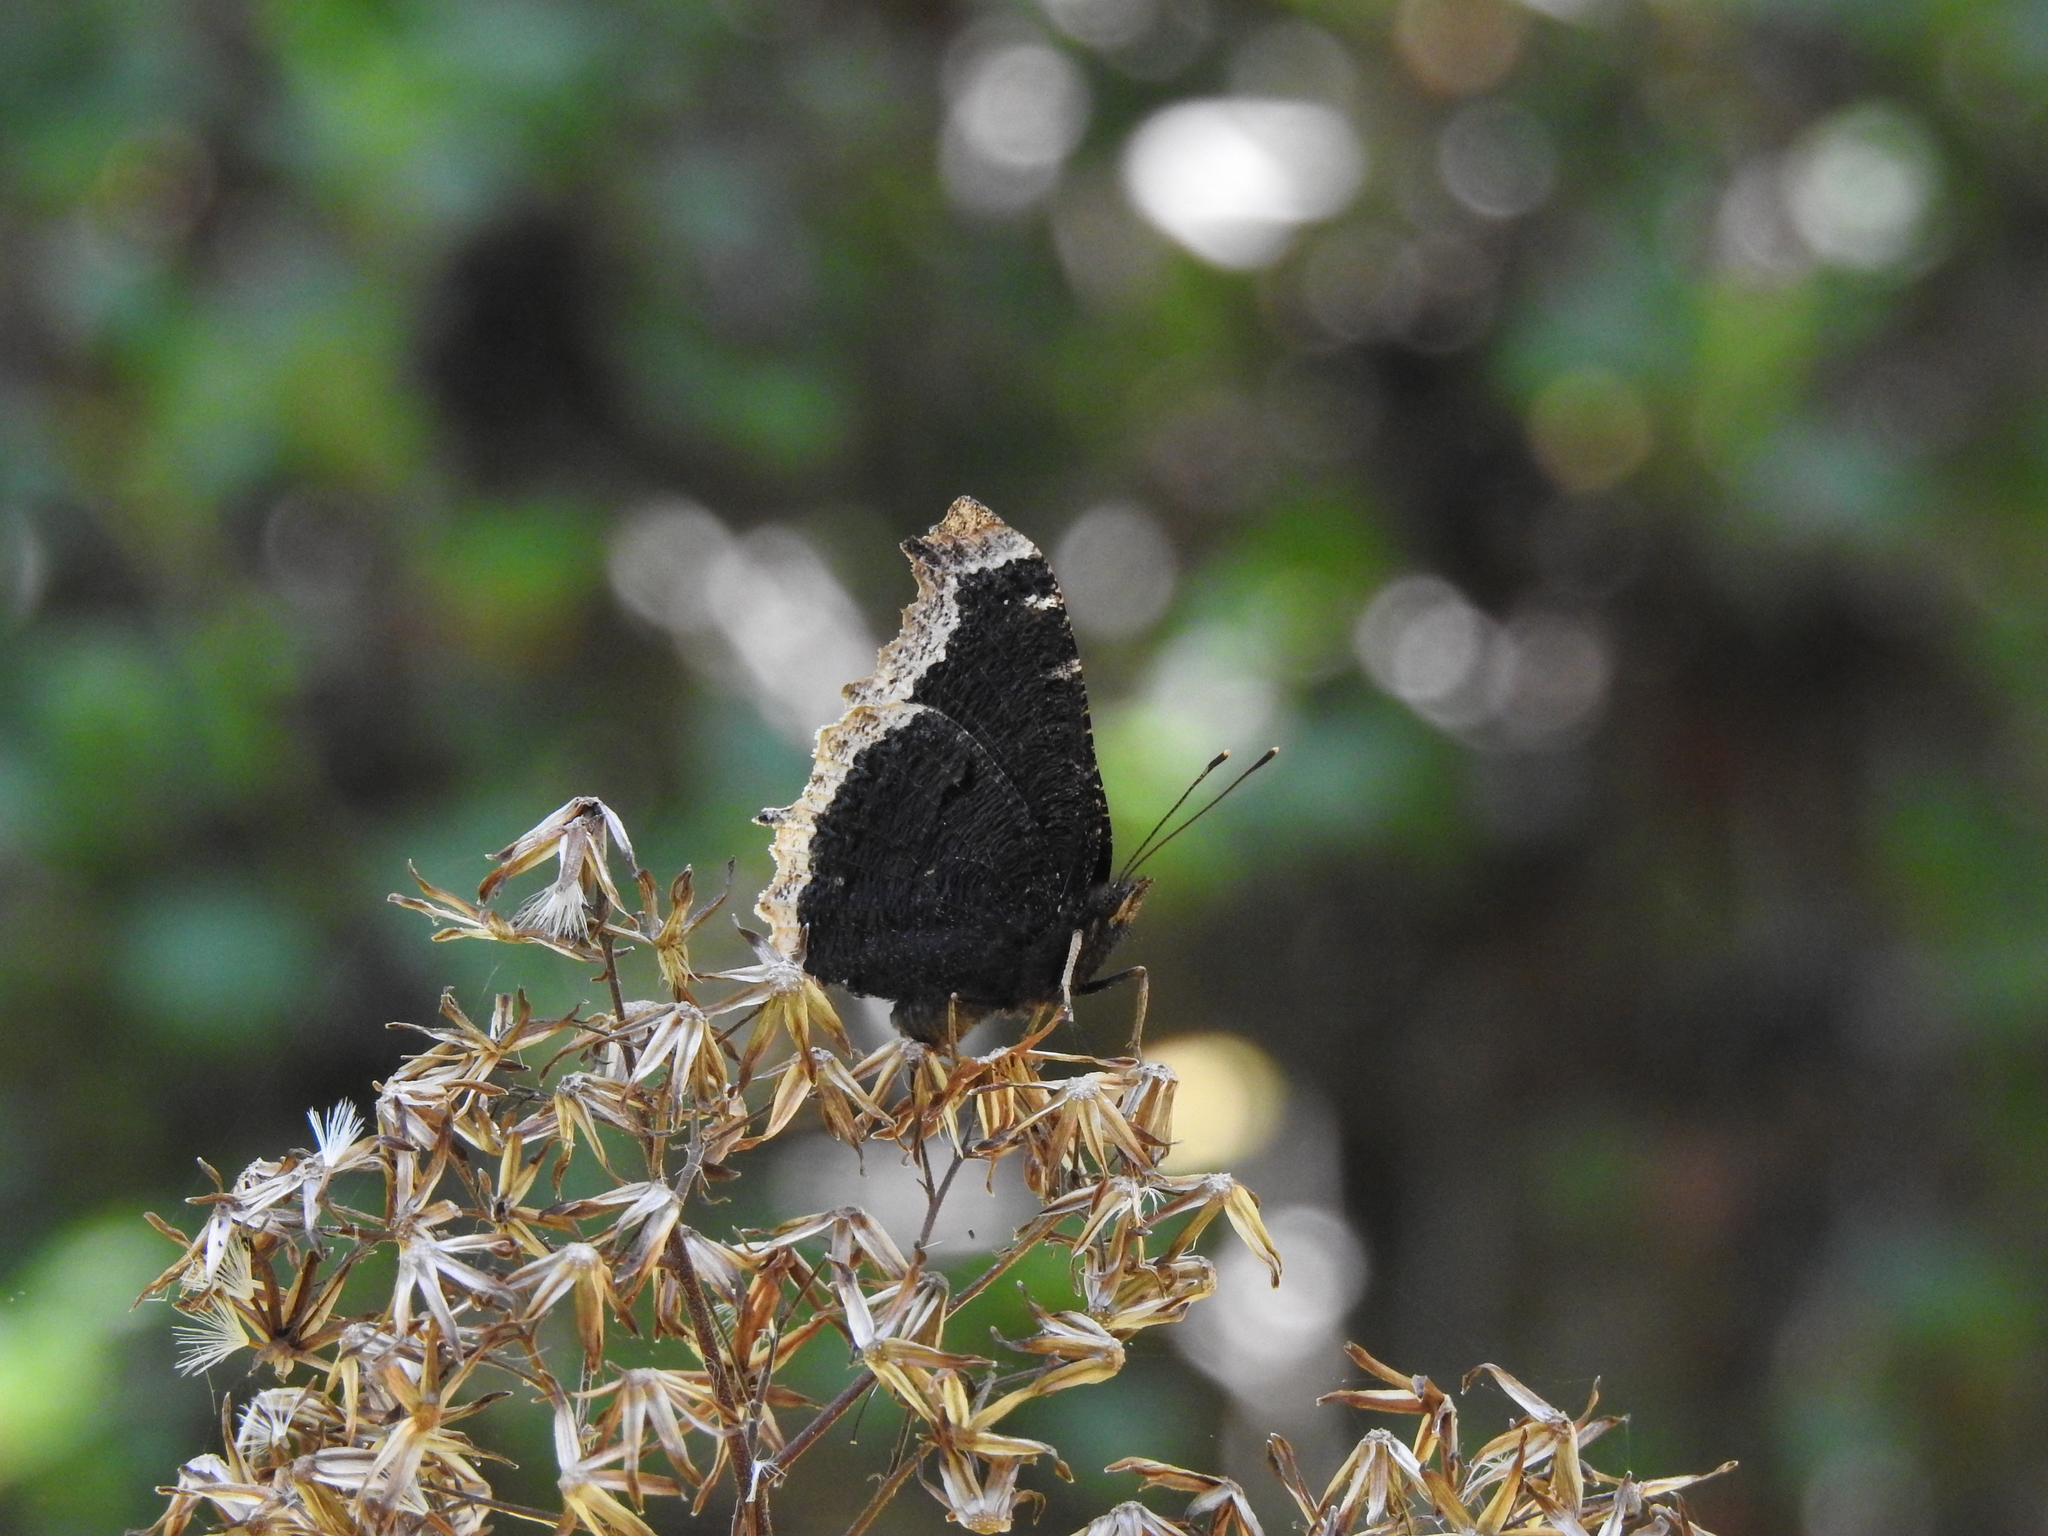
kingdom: Animalia
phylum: Arthropoda
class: Insecta
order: Lepidoptera
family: Nymphalidae
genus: Nymphalis
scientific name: Nymphalis antiopa
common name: Camberwell beauty
